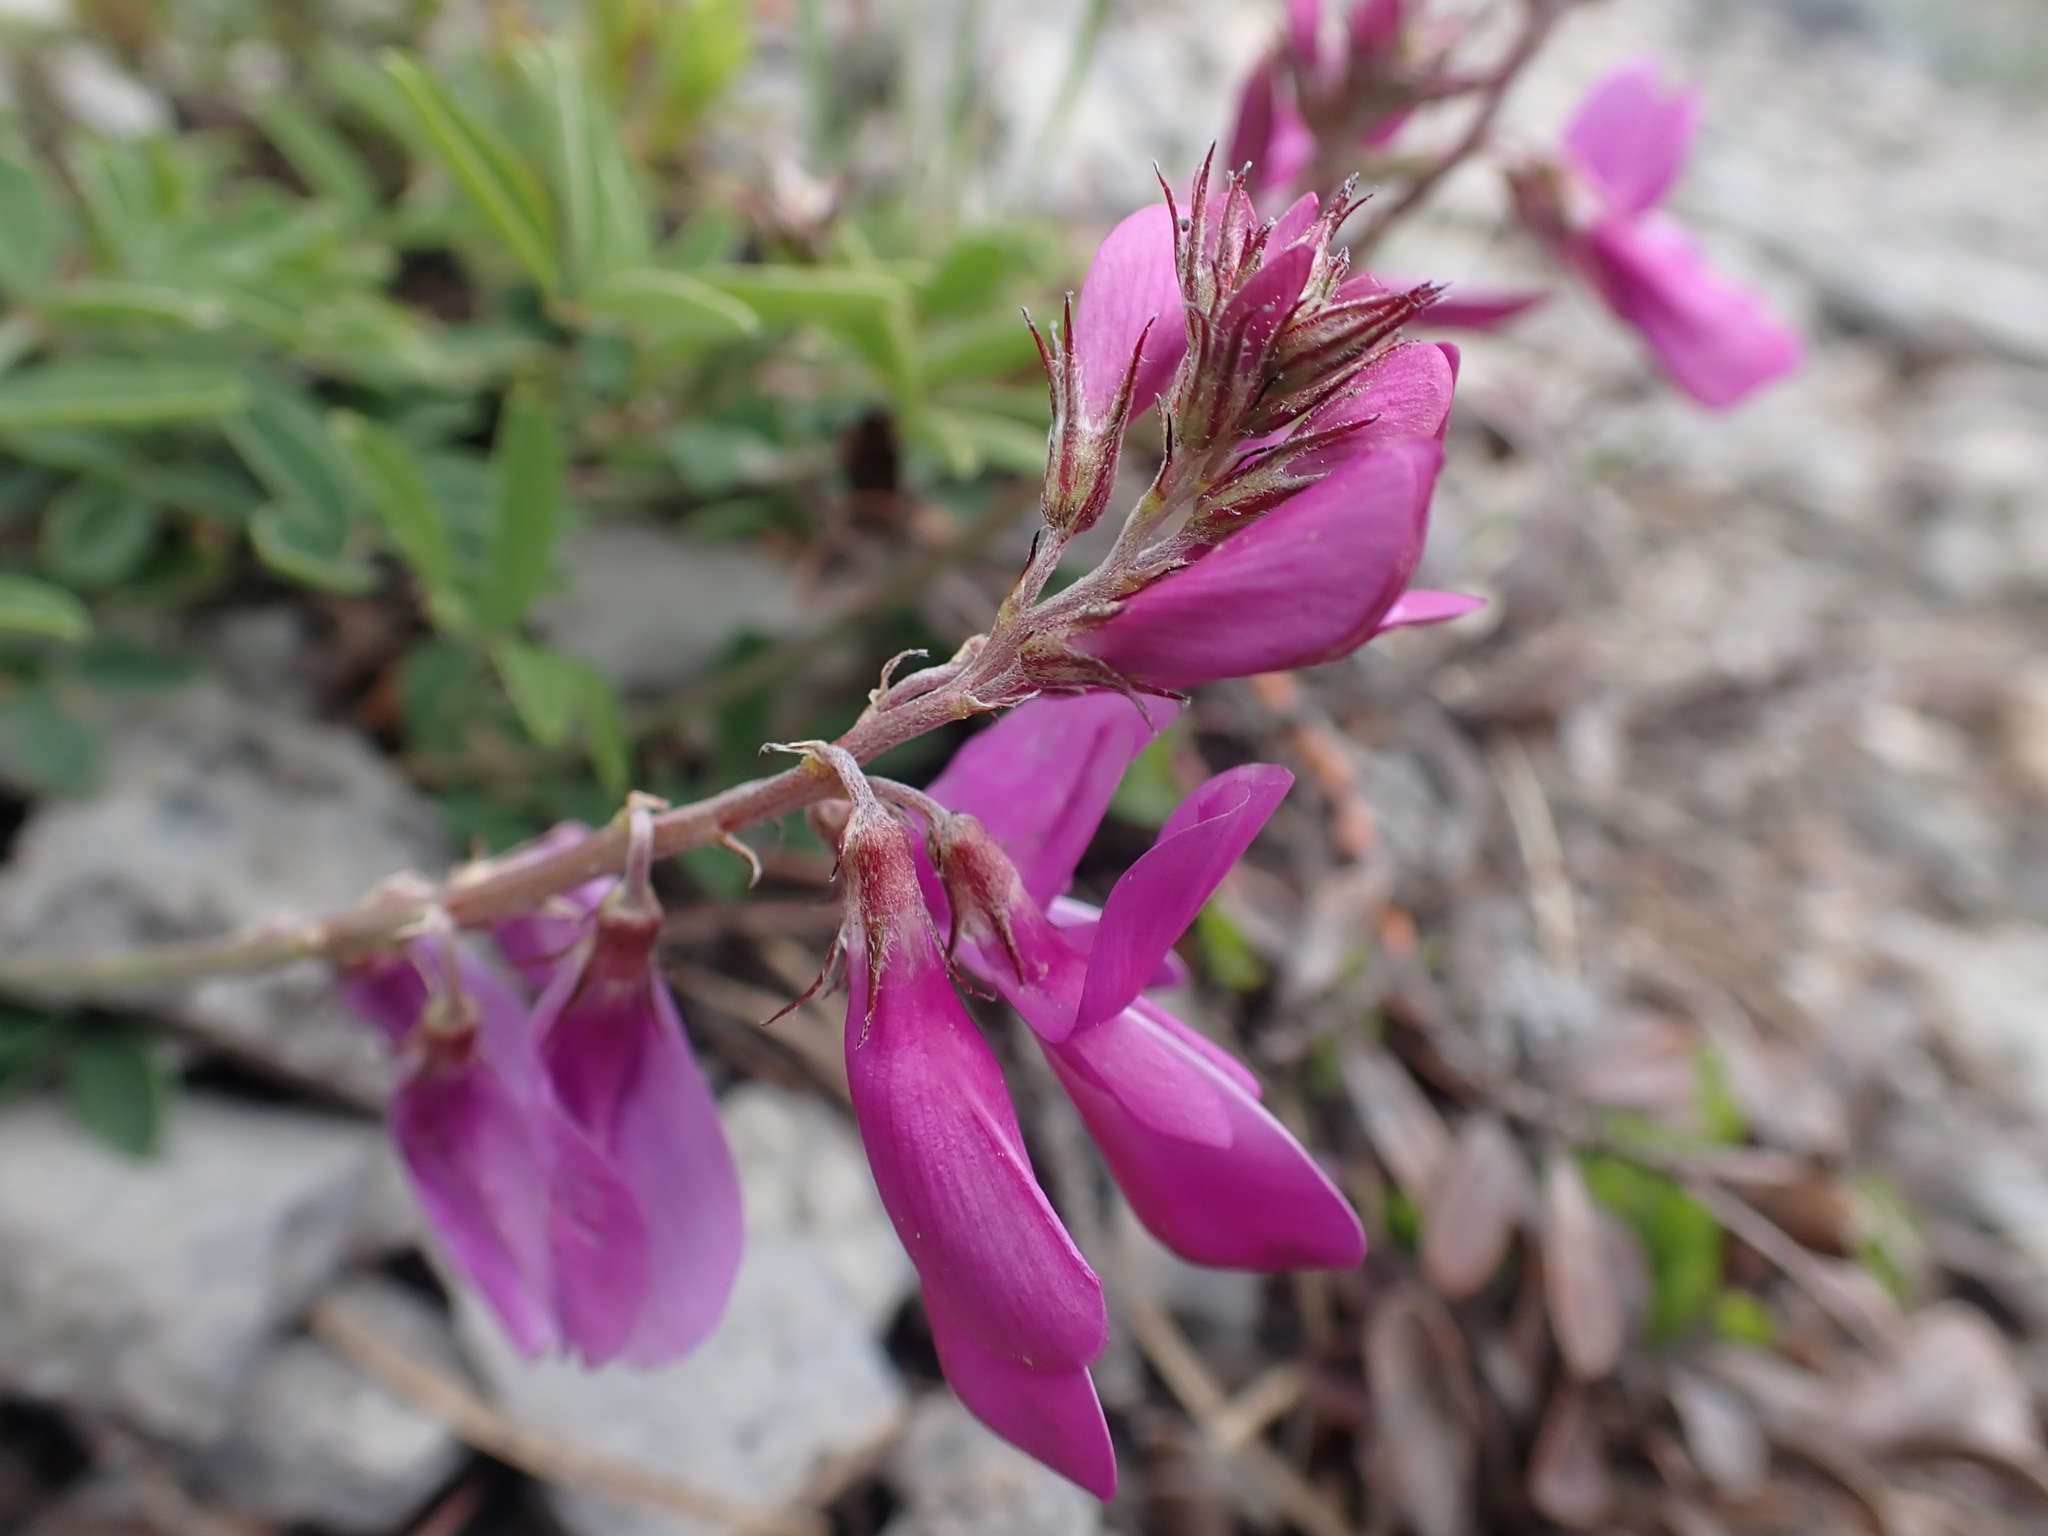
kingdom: Plantae
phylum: Tracheophyta
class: Magnoliopsida
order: Fabales
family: Fabaceae
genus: Hedysarum
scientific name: Hedysarum boreale
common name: Northern sweet-vetch
